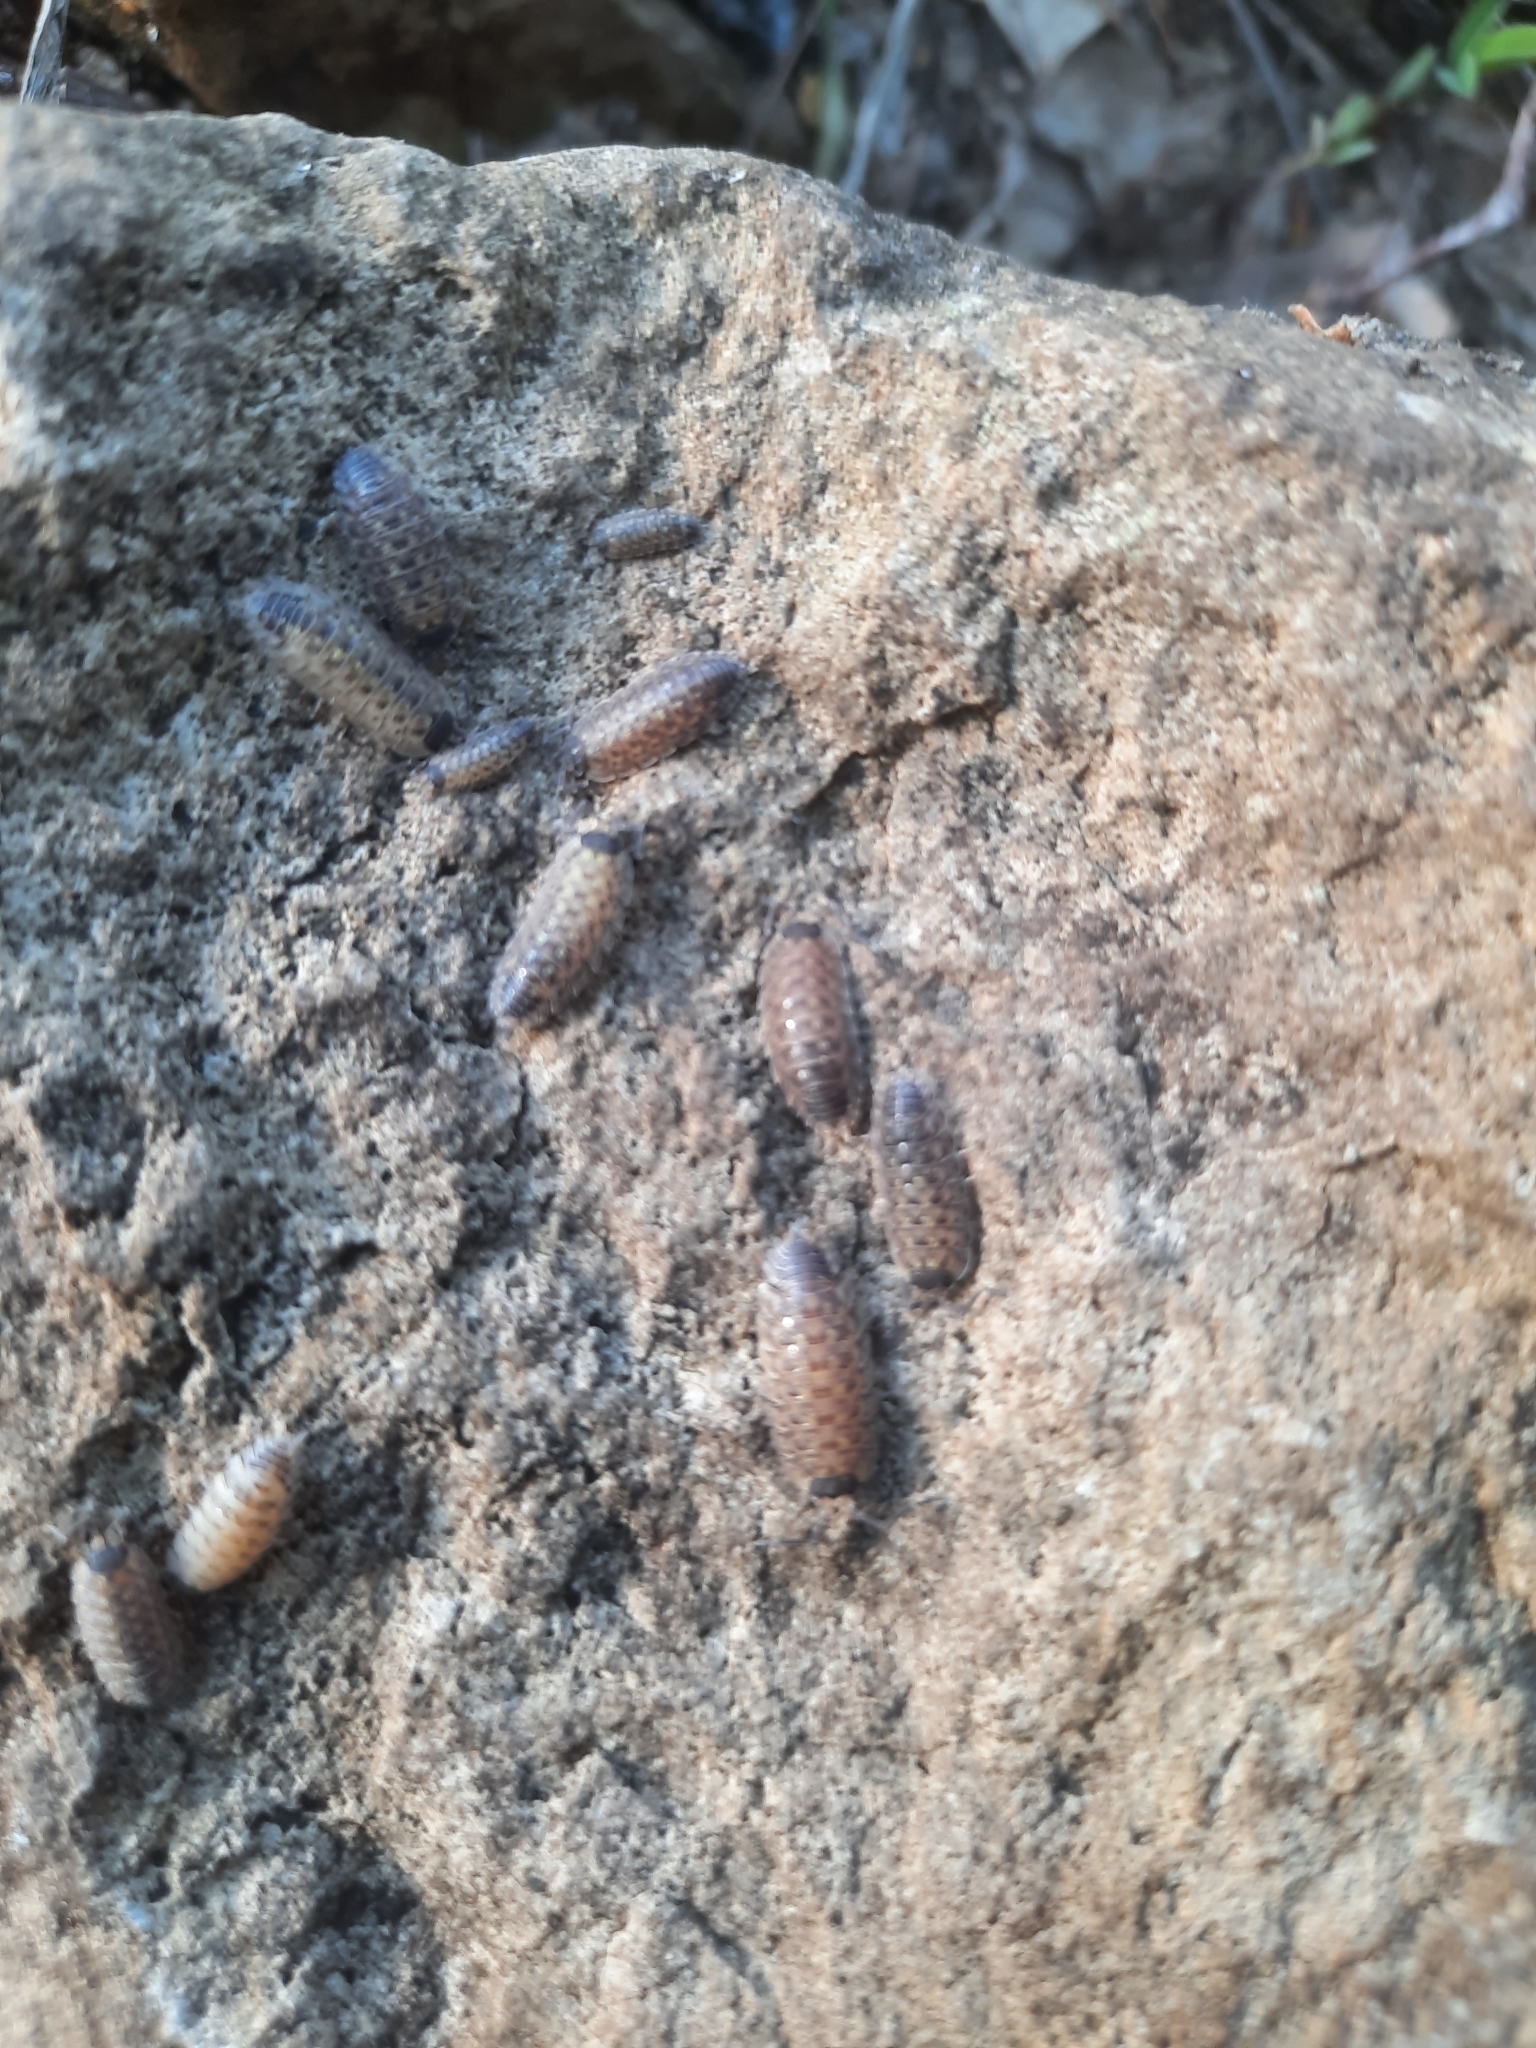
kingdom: Animalia
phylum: Arthropoda
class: Malacostraca
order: Isopoda
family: Porcellionidae
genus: Porcellio
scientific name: Porcellio spinicornis
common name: Painted woodlouse
